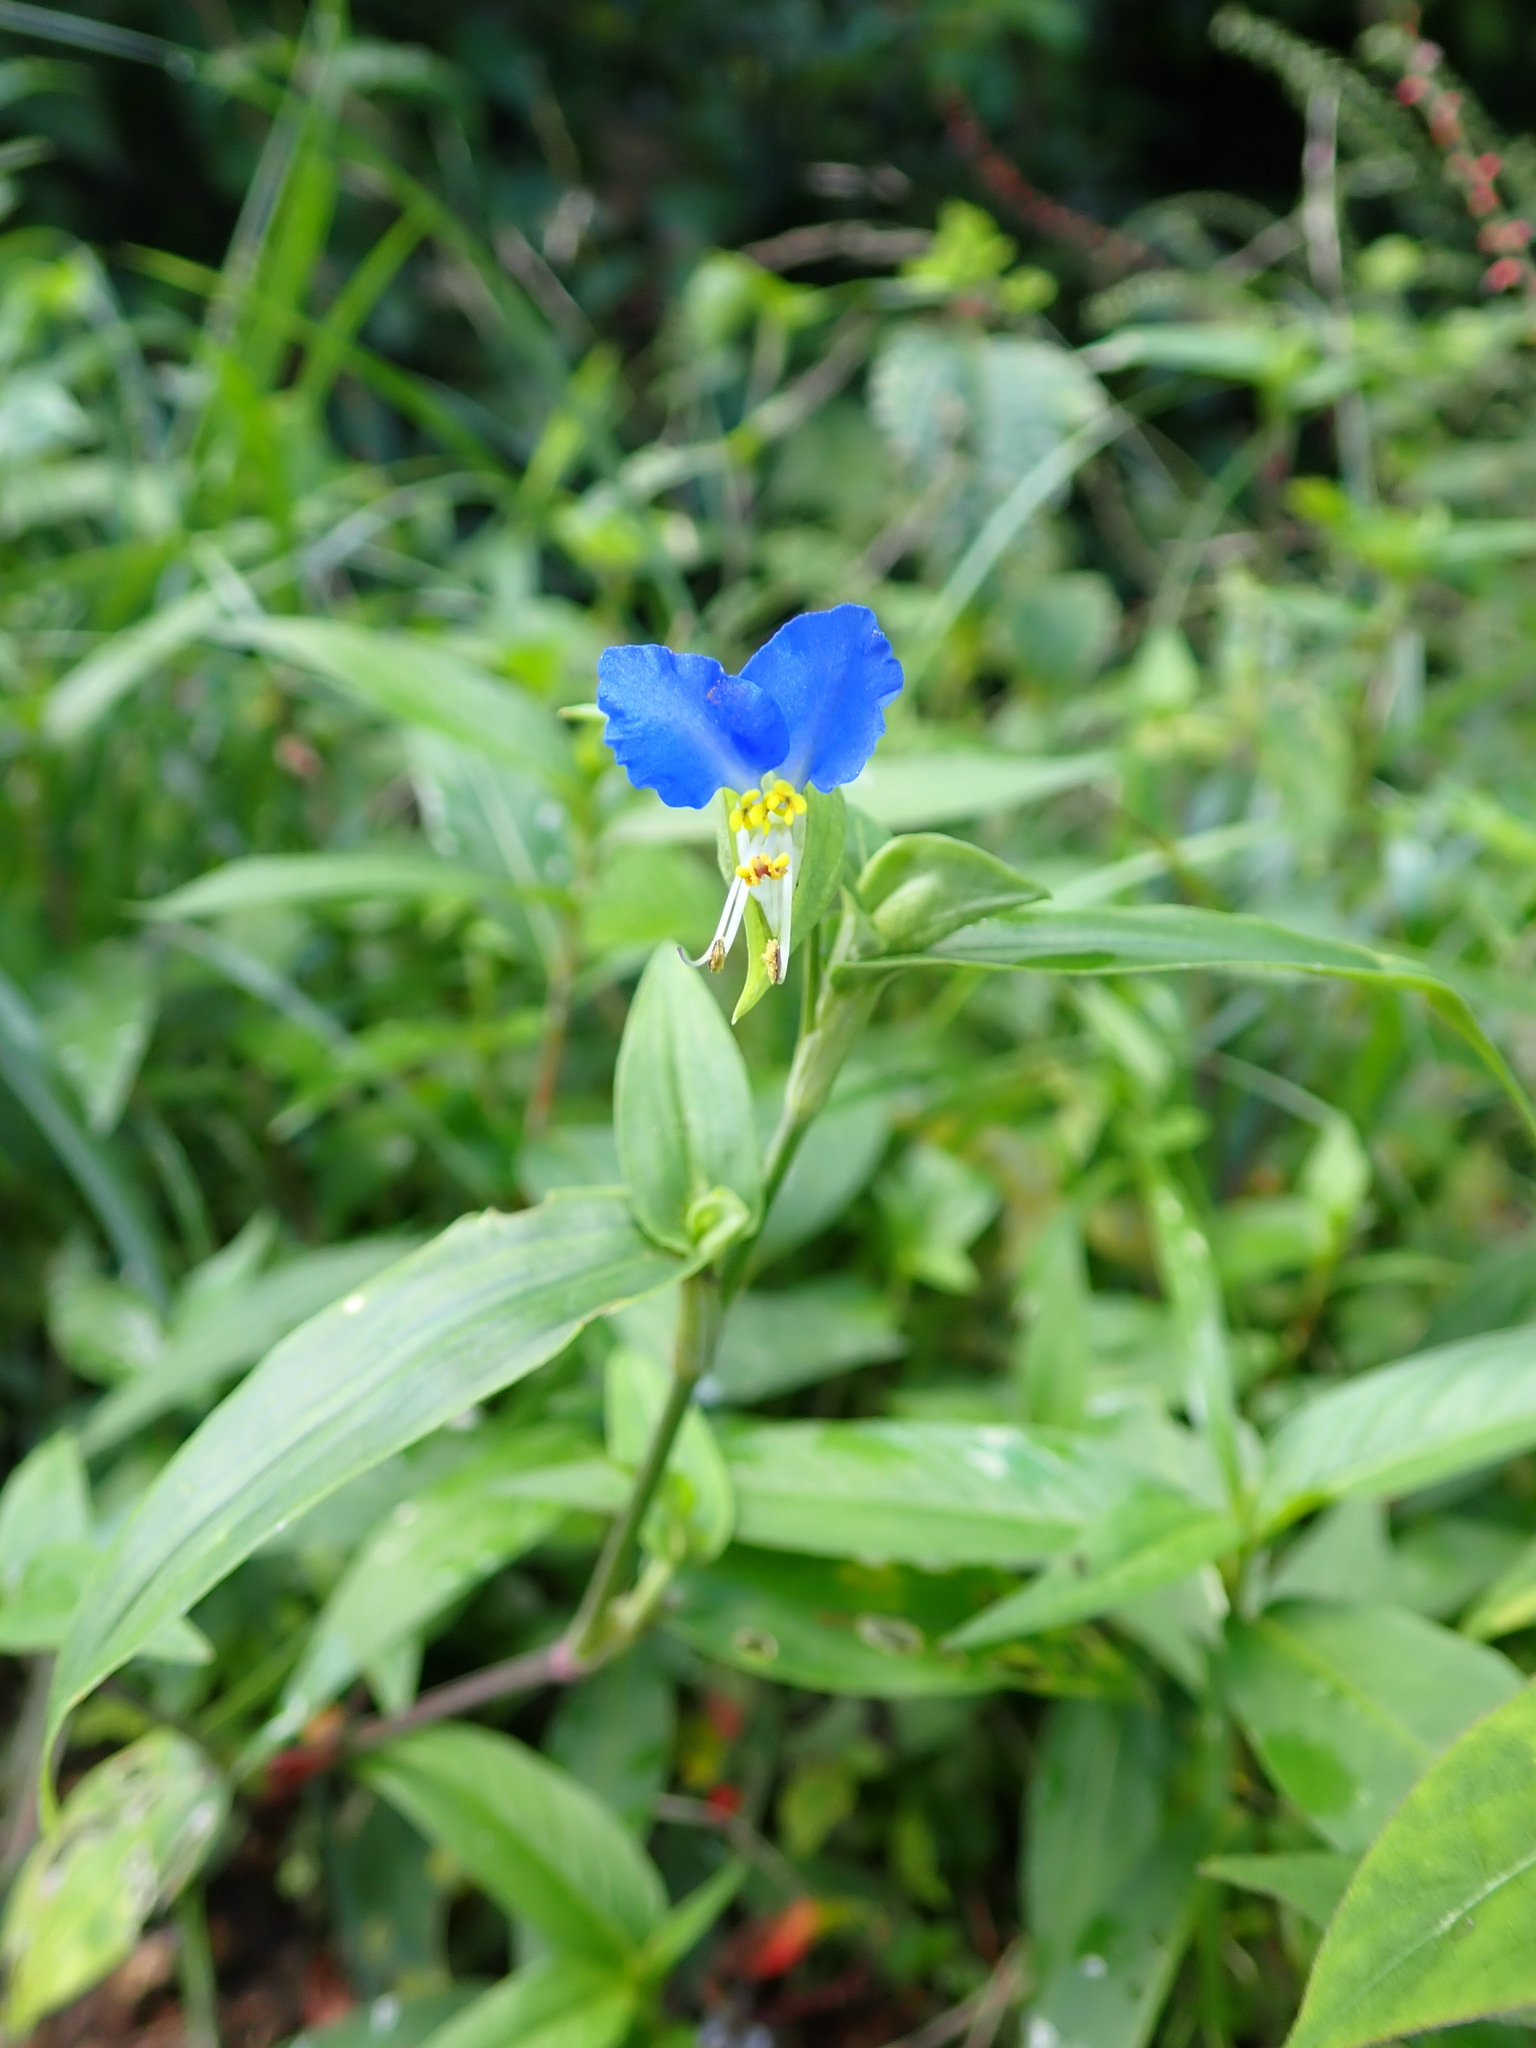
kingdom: Plantae
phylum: Tracheophyta
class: Liliopsida
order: Commelinales
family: Commelinaceae
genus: Commelina
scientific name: Commelina communis
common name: Asiatic dayflower
